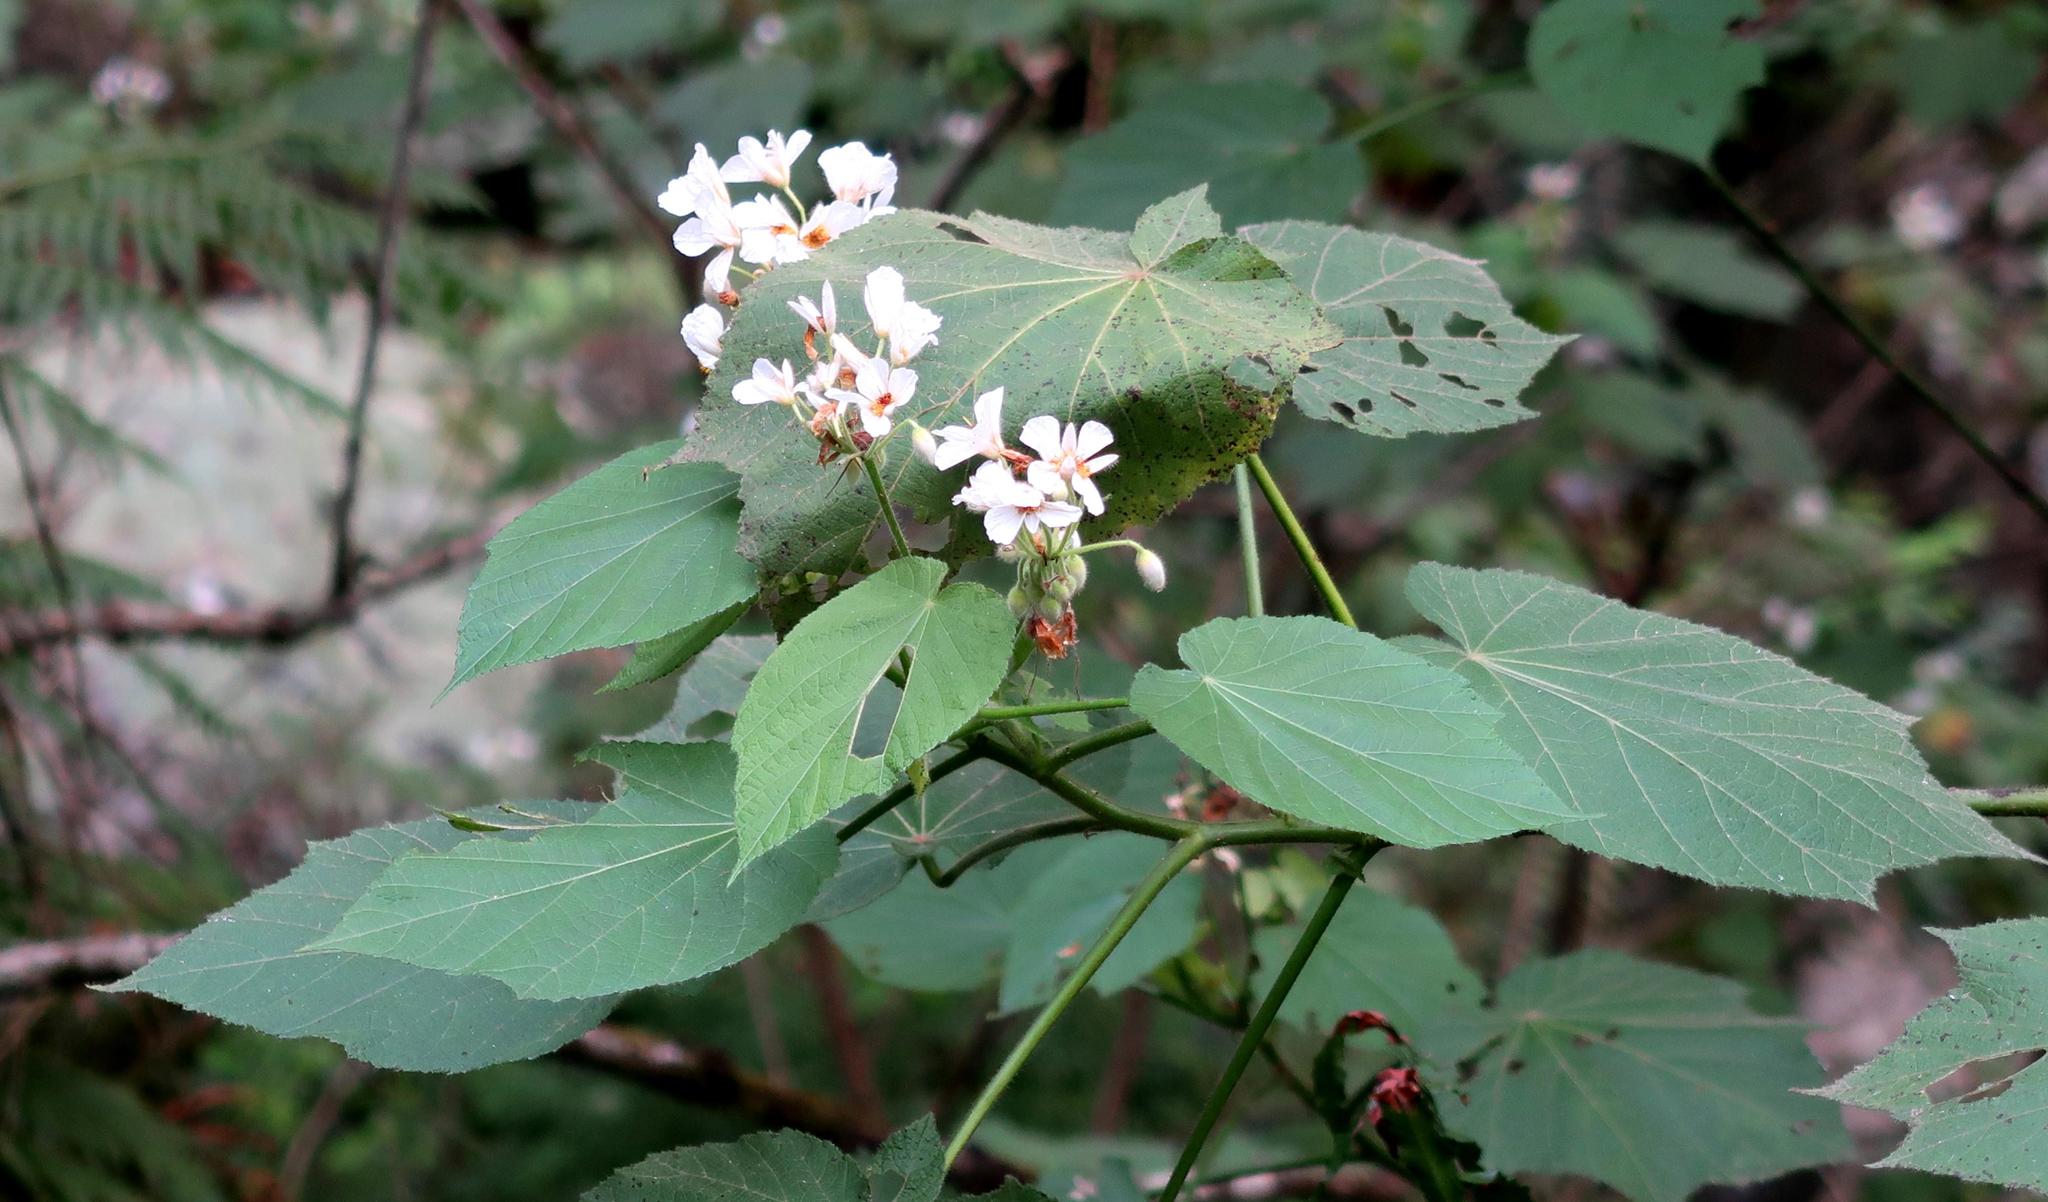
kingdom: Plantae
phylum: Tracheophyta
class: Magnoliopsida
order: Malvales
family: Malvaceae
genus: Sparrmannia
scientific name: Sparrmannia africana
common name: African-hemp
